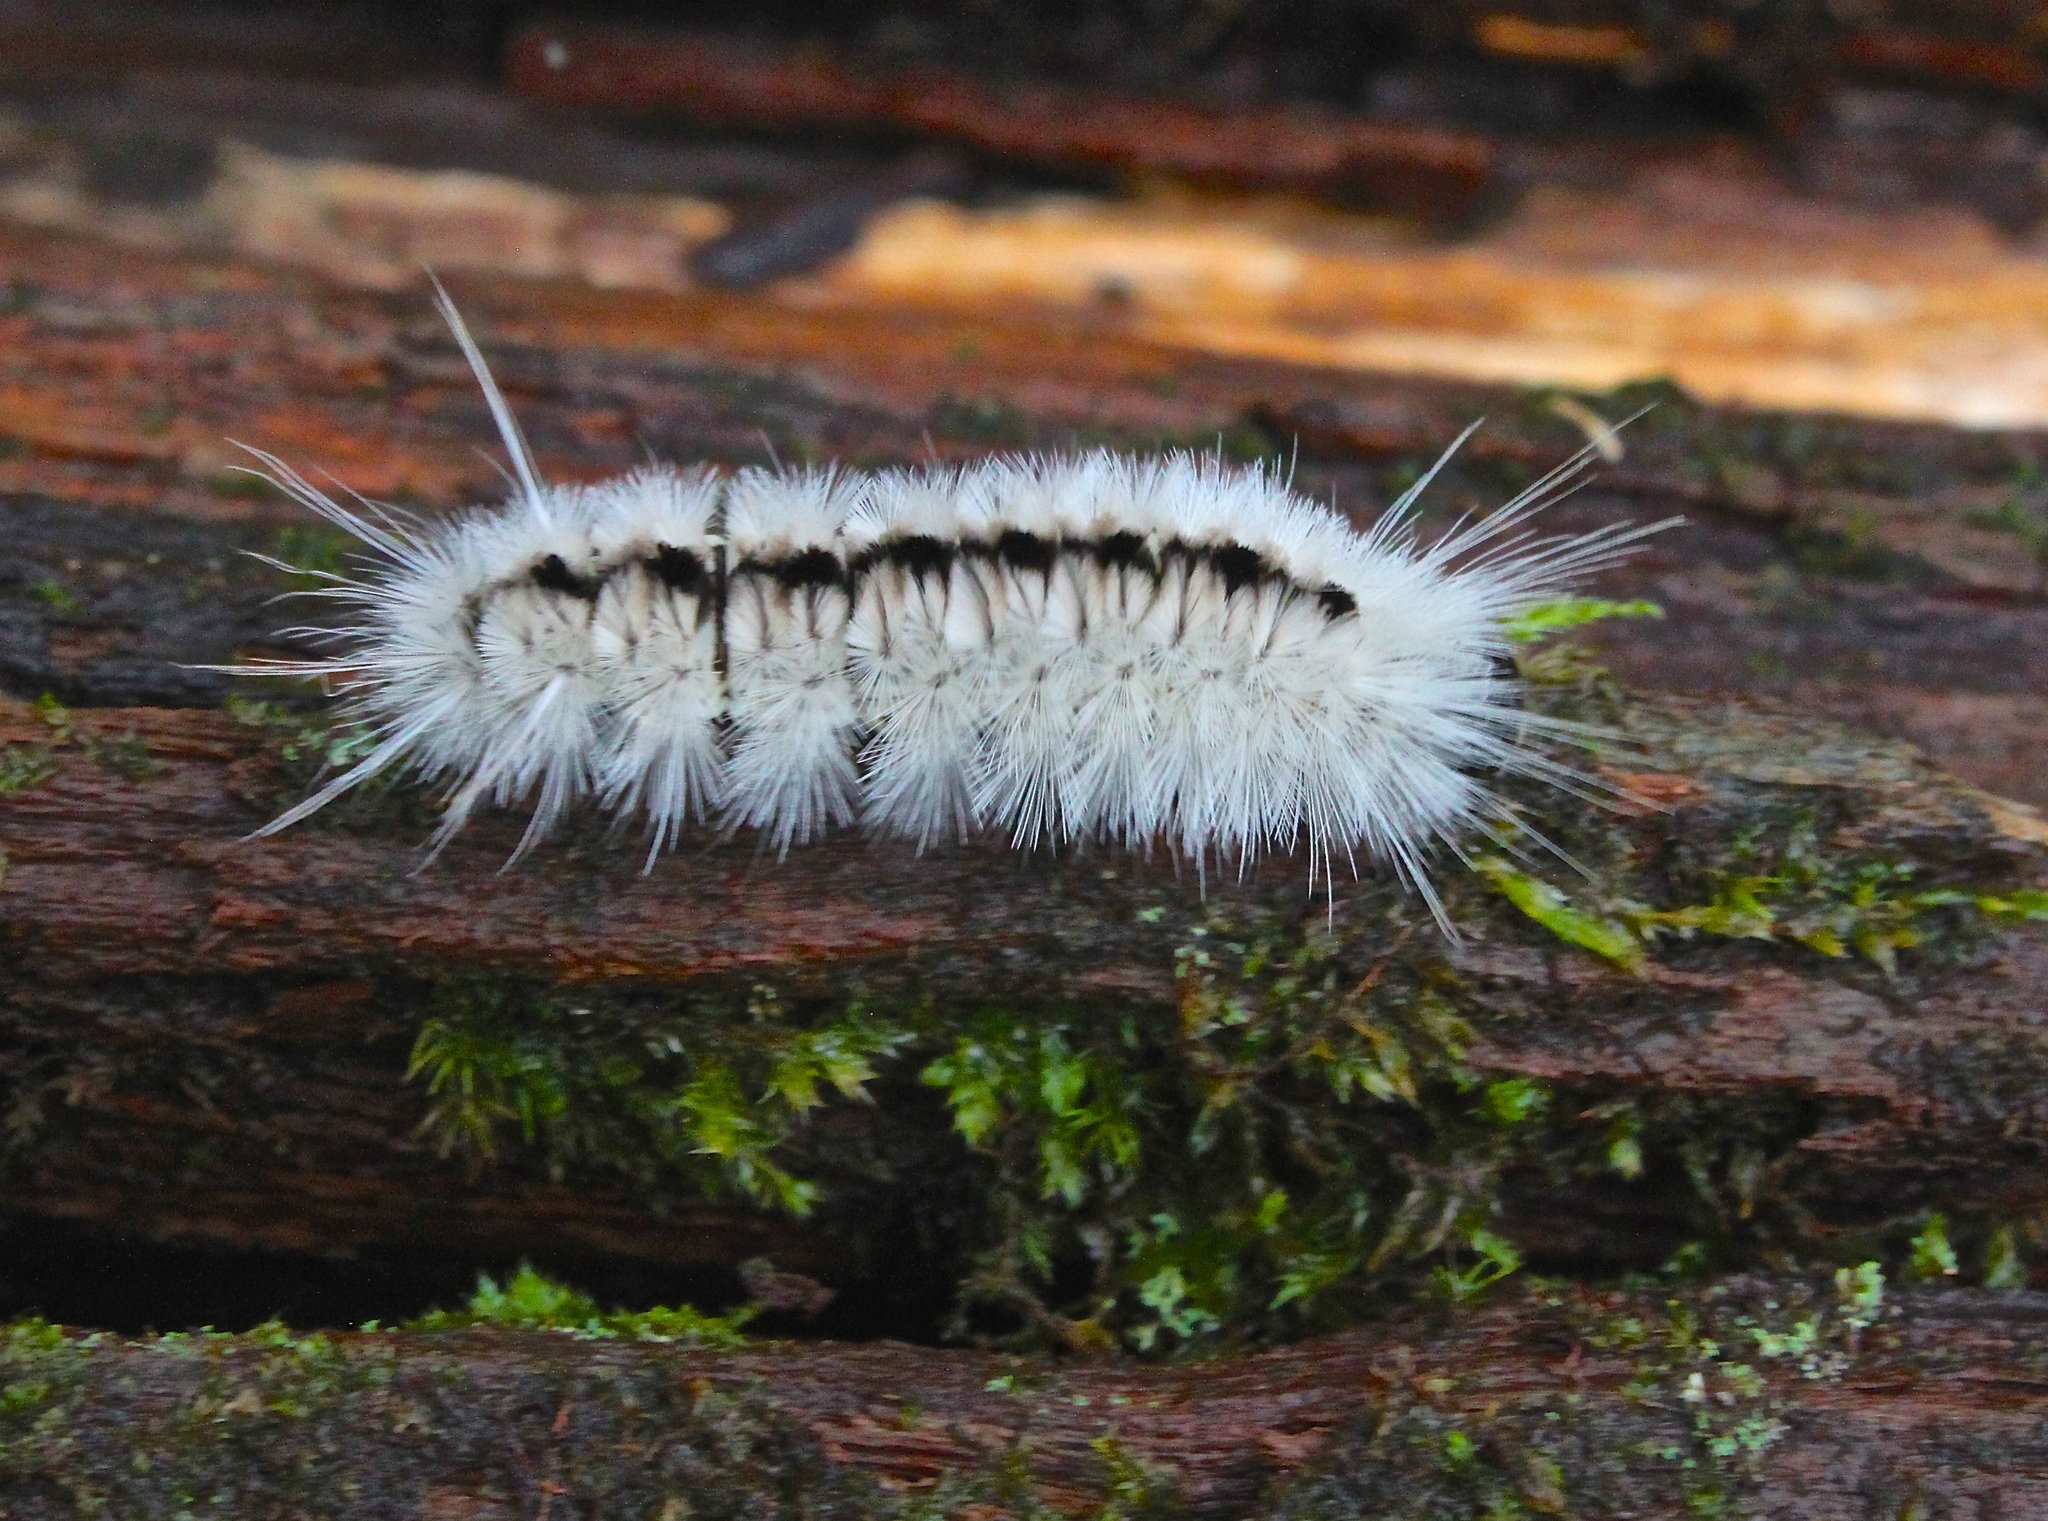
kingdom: Animalia
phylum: Arthropoda
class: Insecta
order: Lepidoptera
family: Erebidae
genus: Lophocampa
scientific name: Lophocampa caryae
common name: Hickory tussock moth
